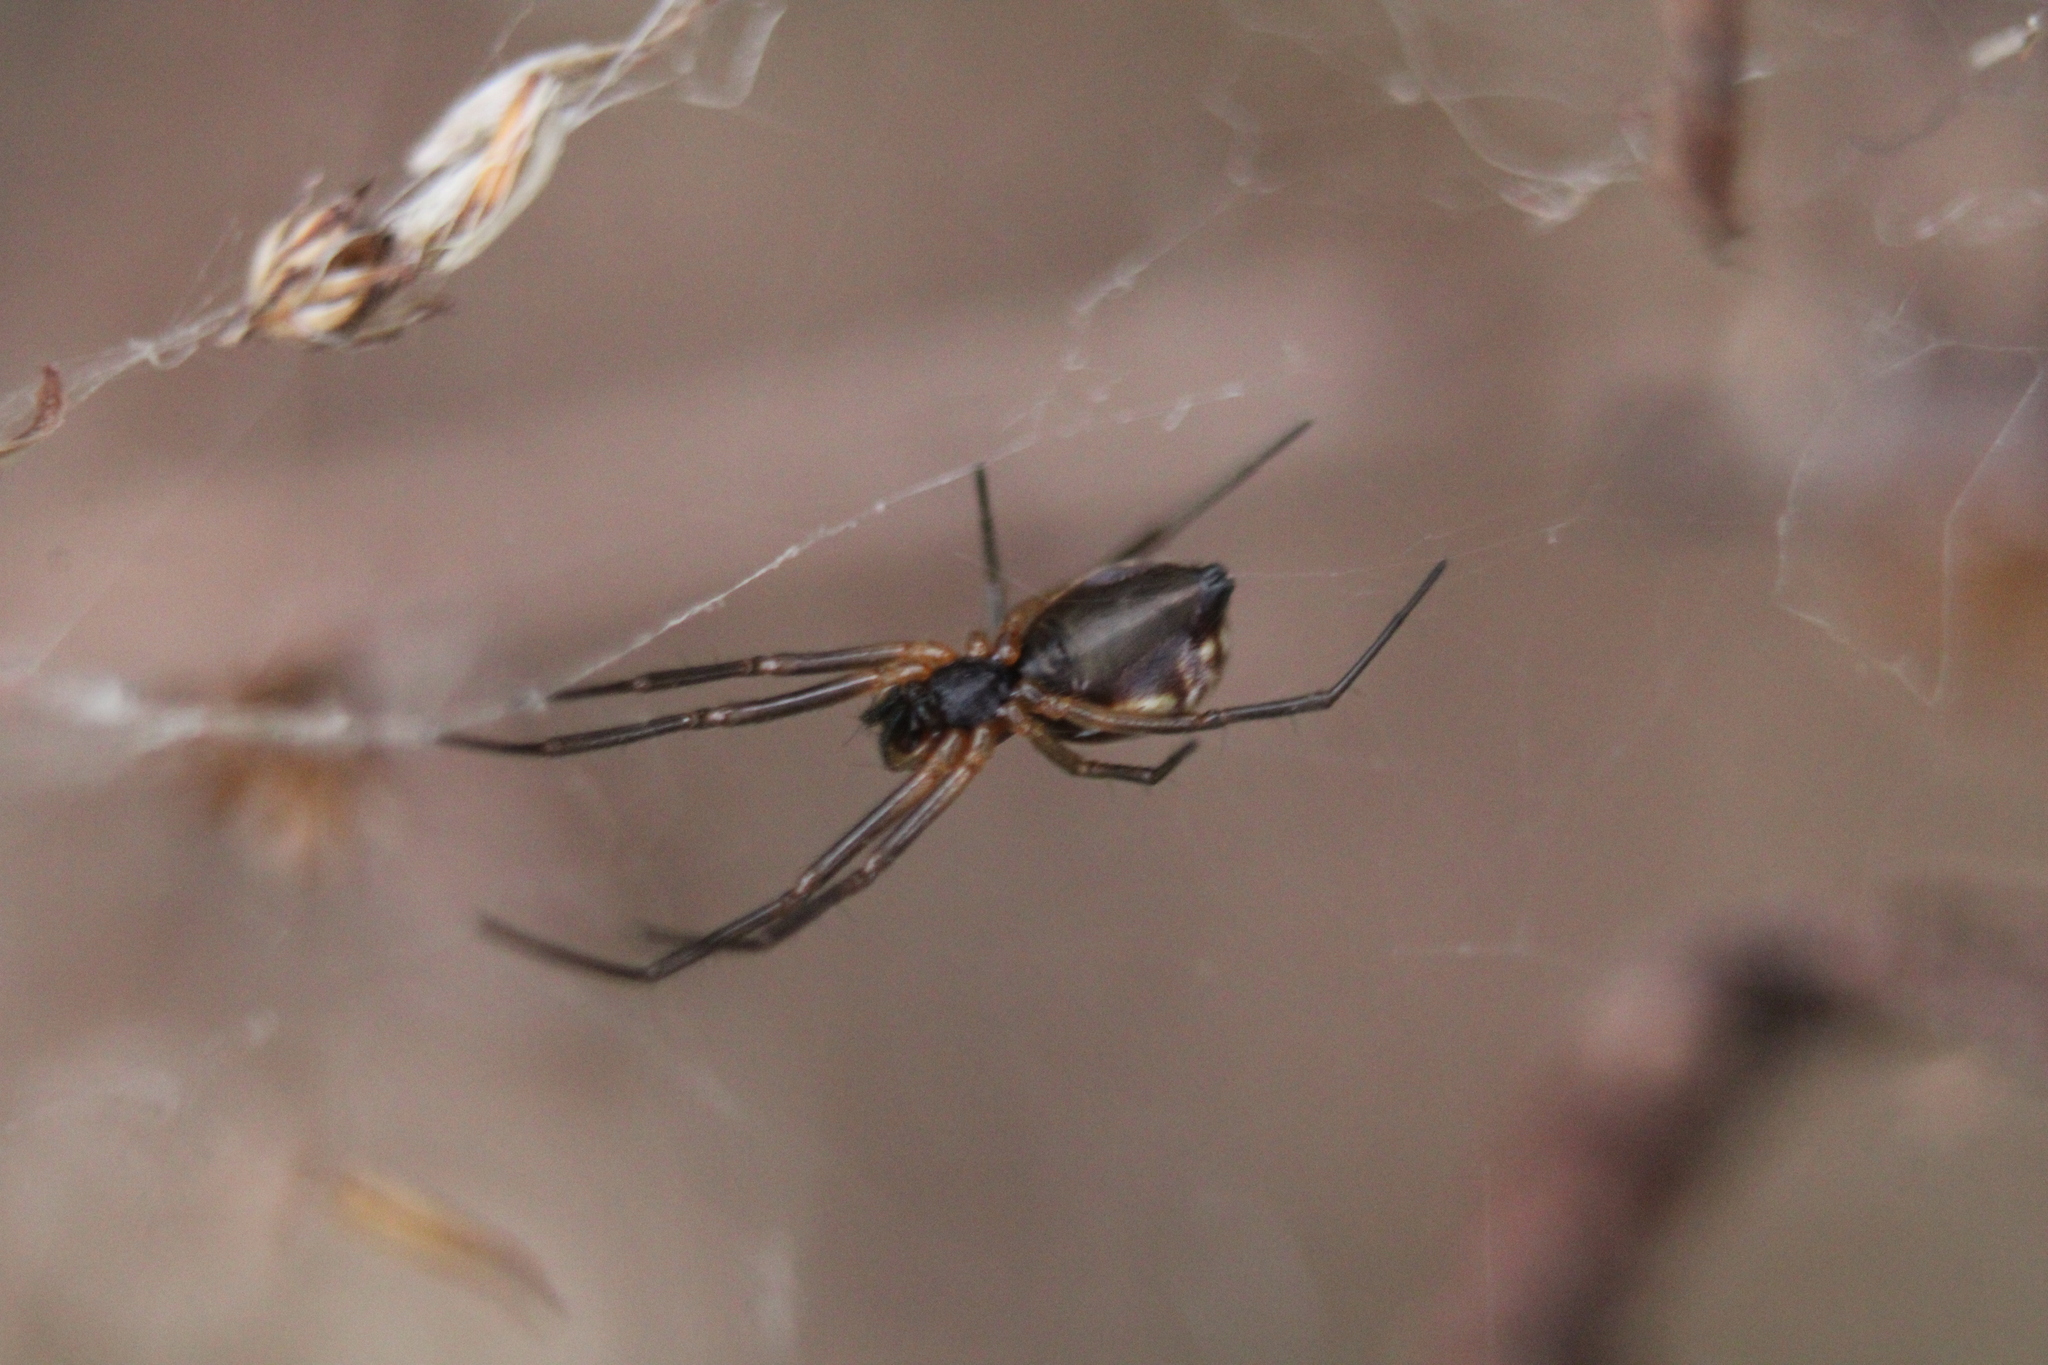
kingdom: Animalia
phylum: Arthropoda
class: Arachnida
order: Araneae
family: Linyphiidae
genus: Frontinella
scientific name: Frontinella pyramitela
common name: Bowl-and-doily spider
